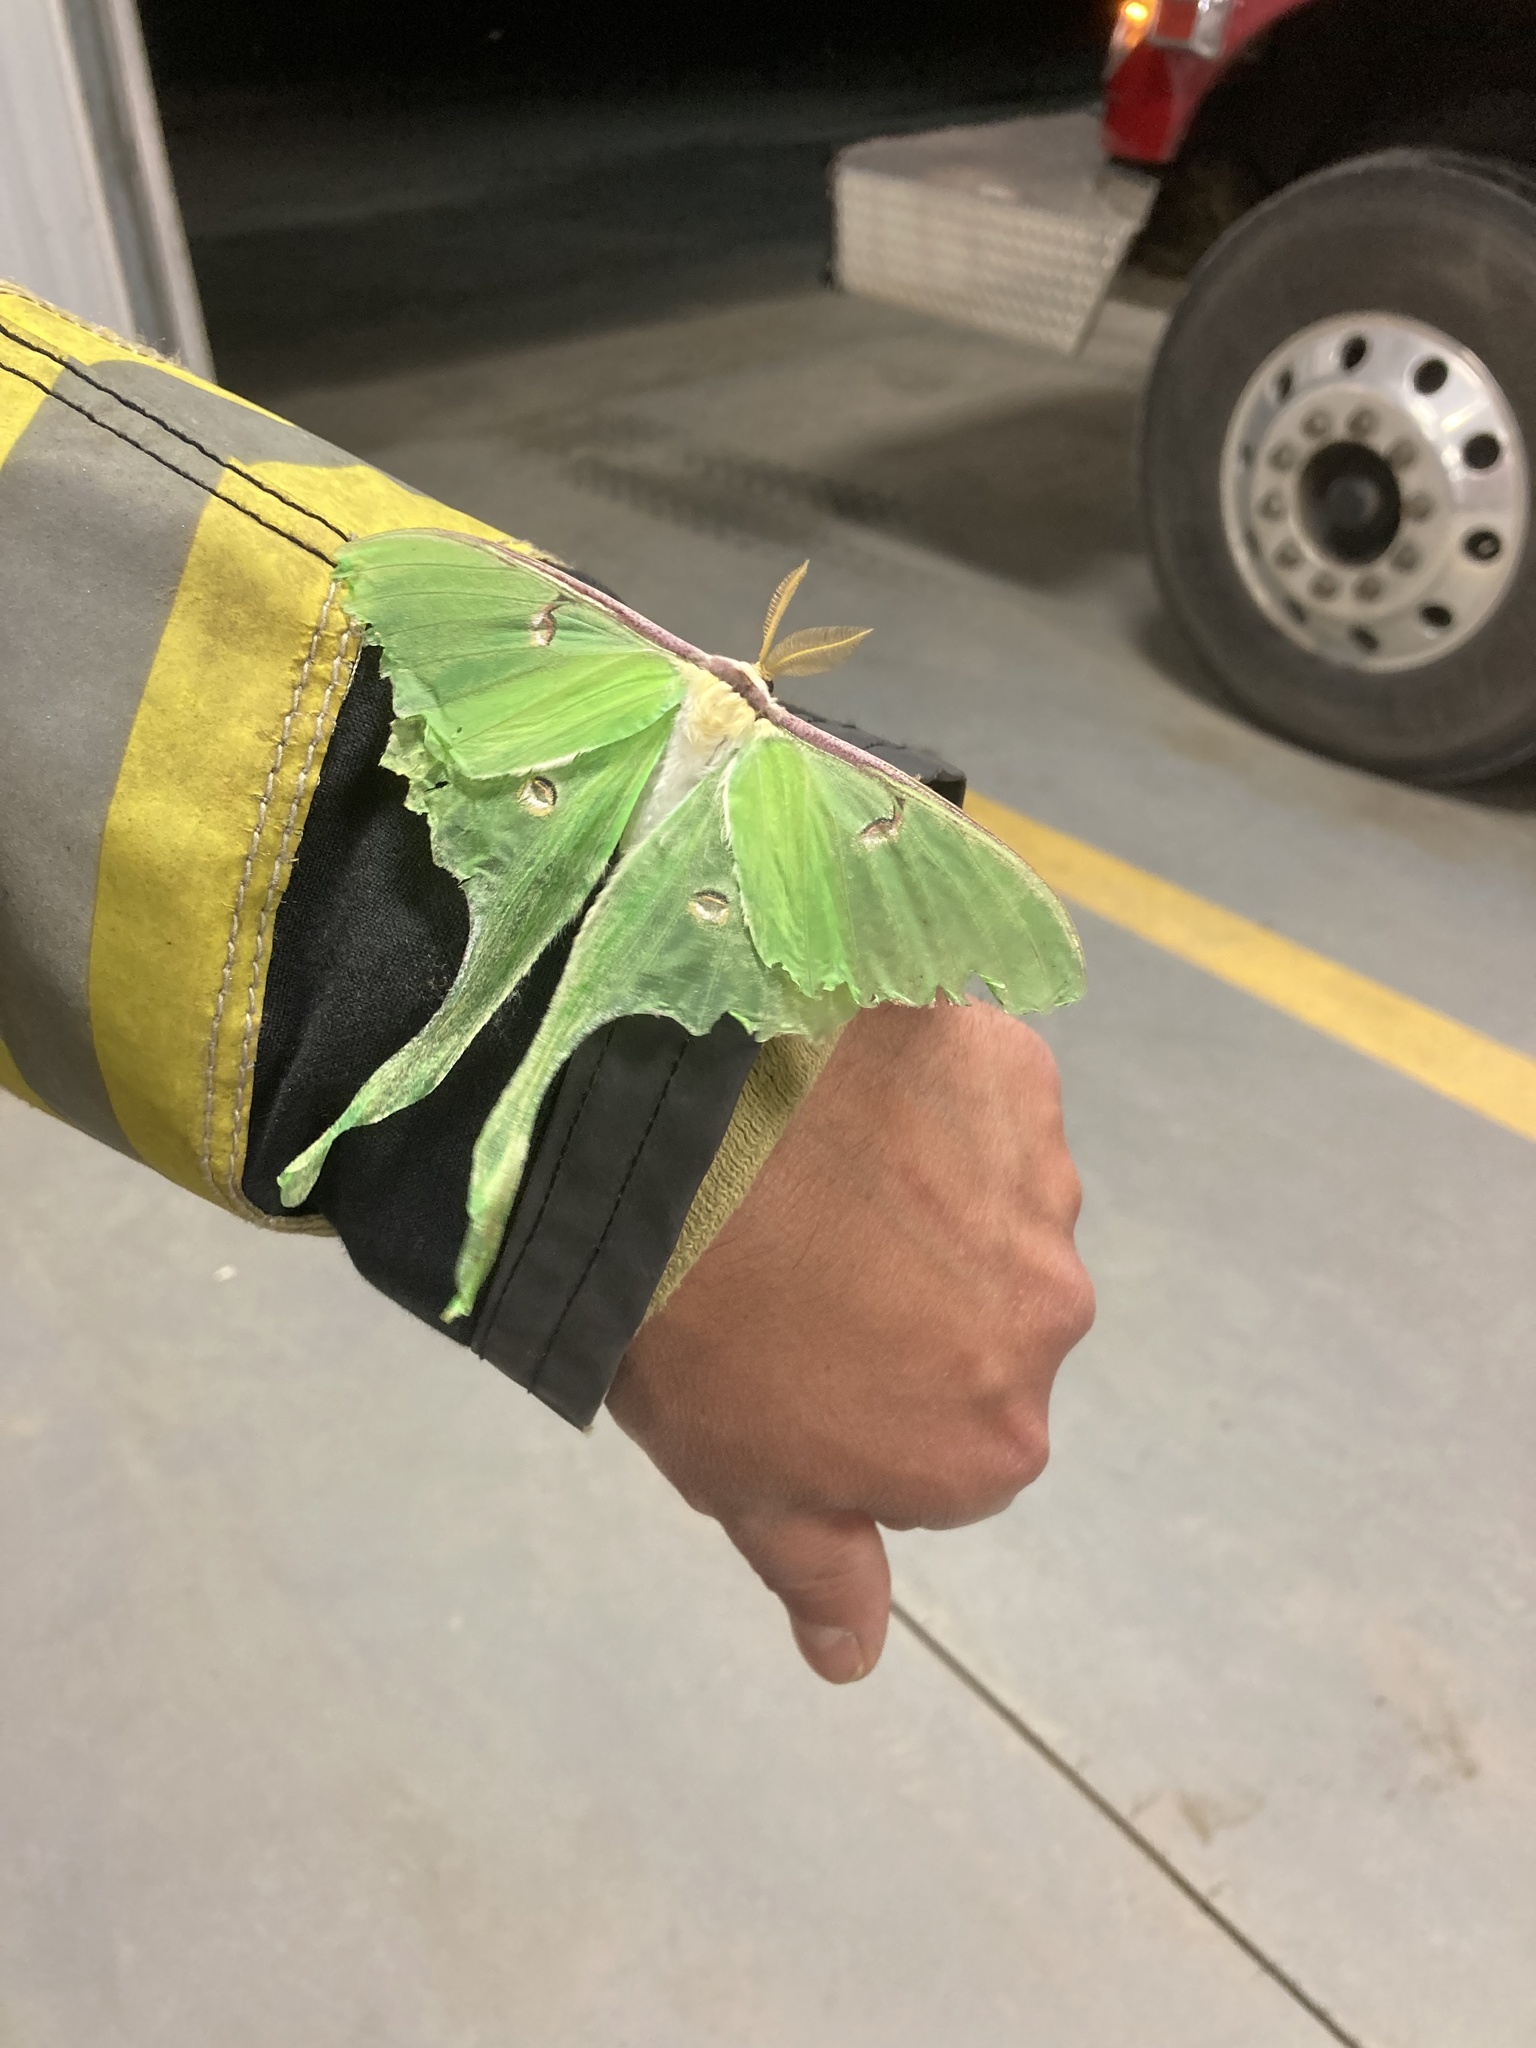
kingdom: Animalia
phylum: Arthropoda
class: Insecta
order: Lepidoptera
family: Saturniidae
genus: Actias
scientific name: Actias luna
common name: Luna moth
